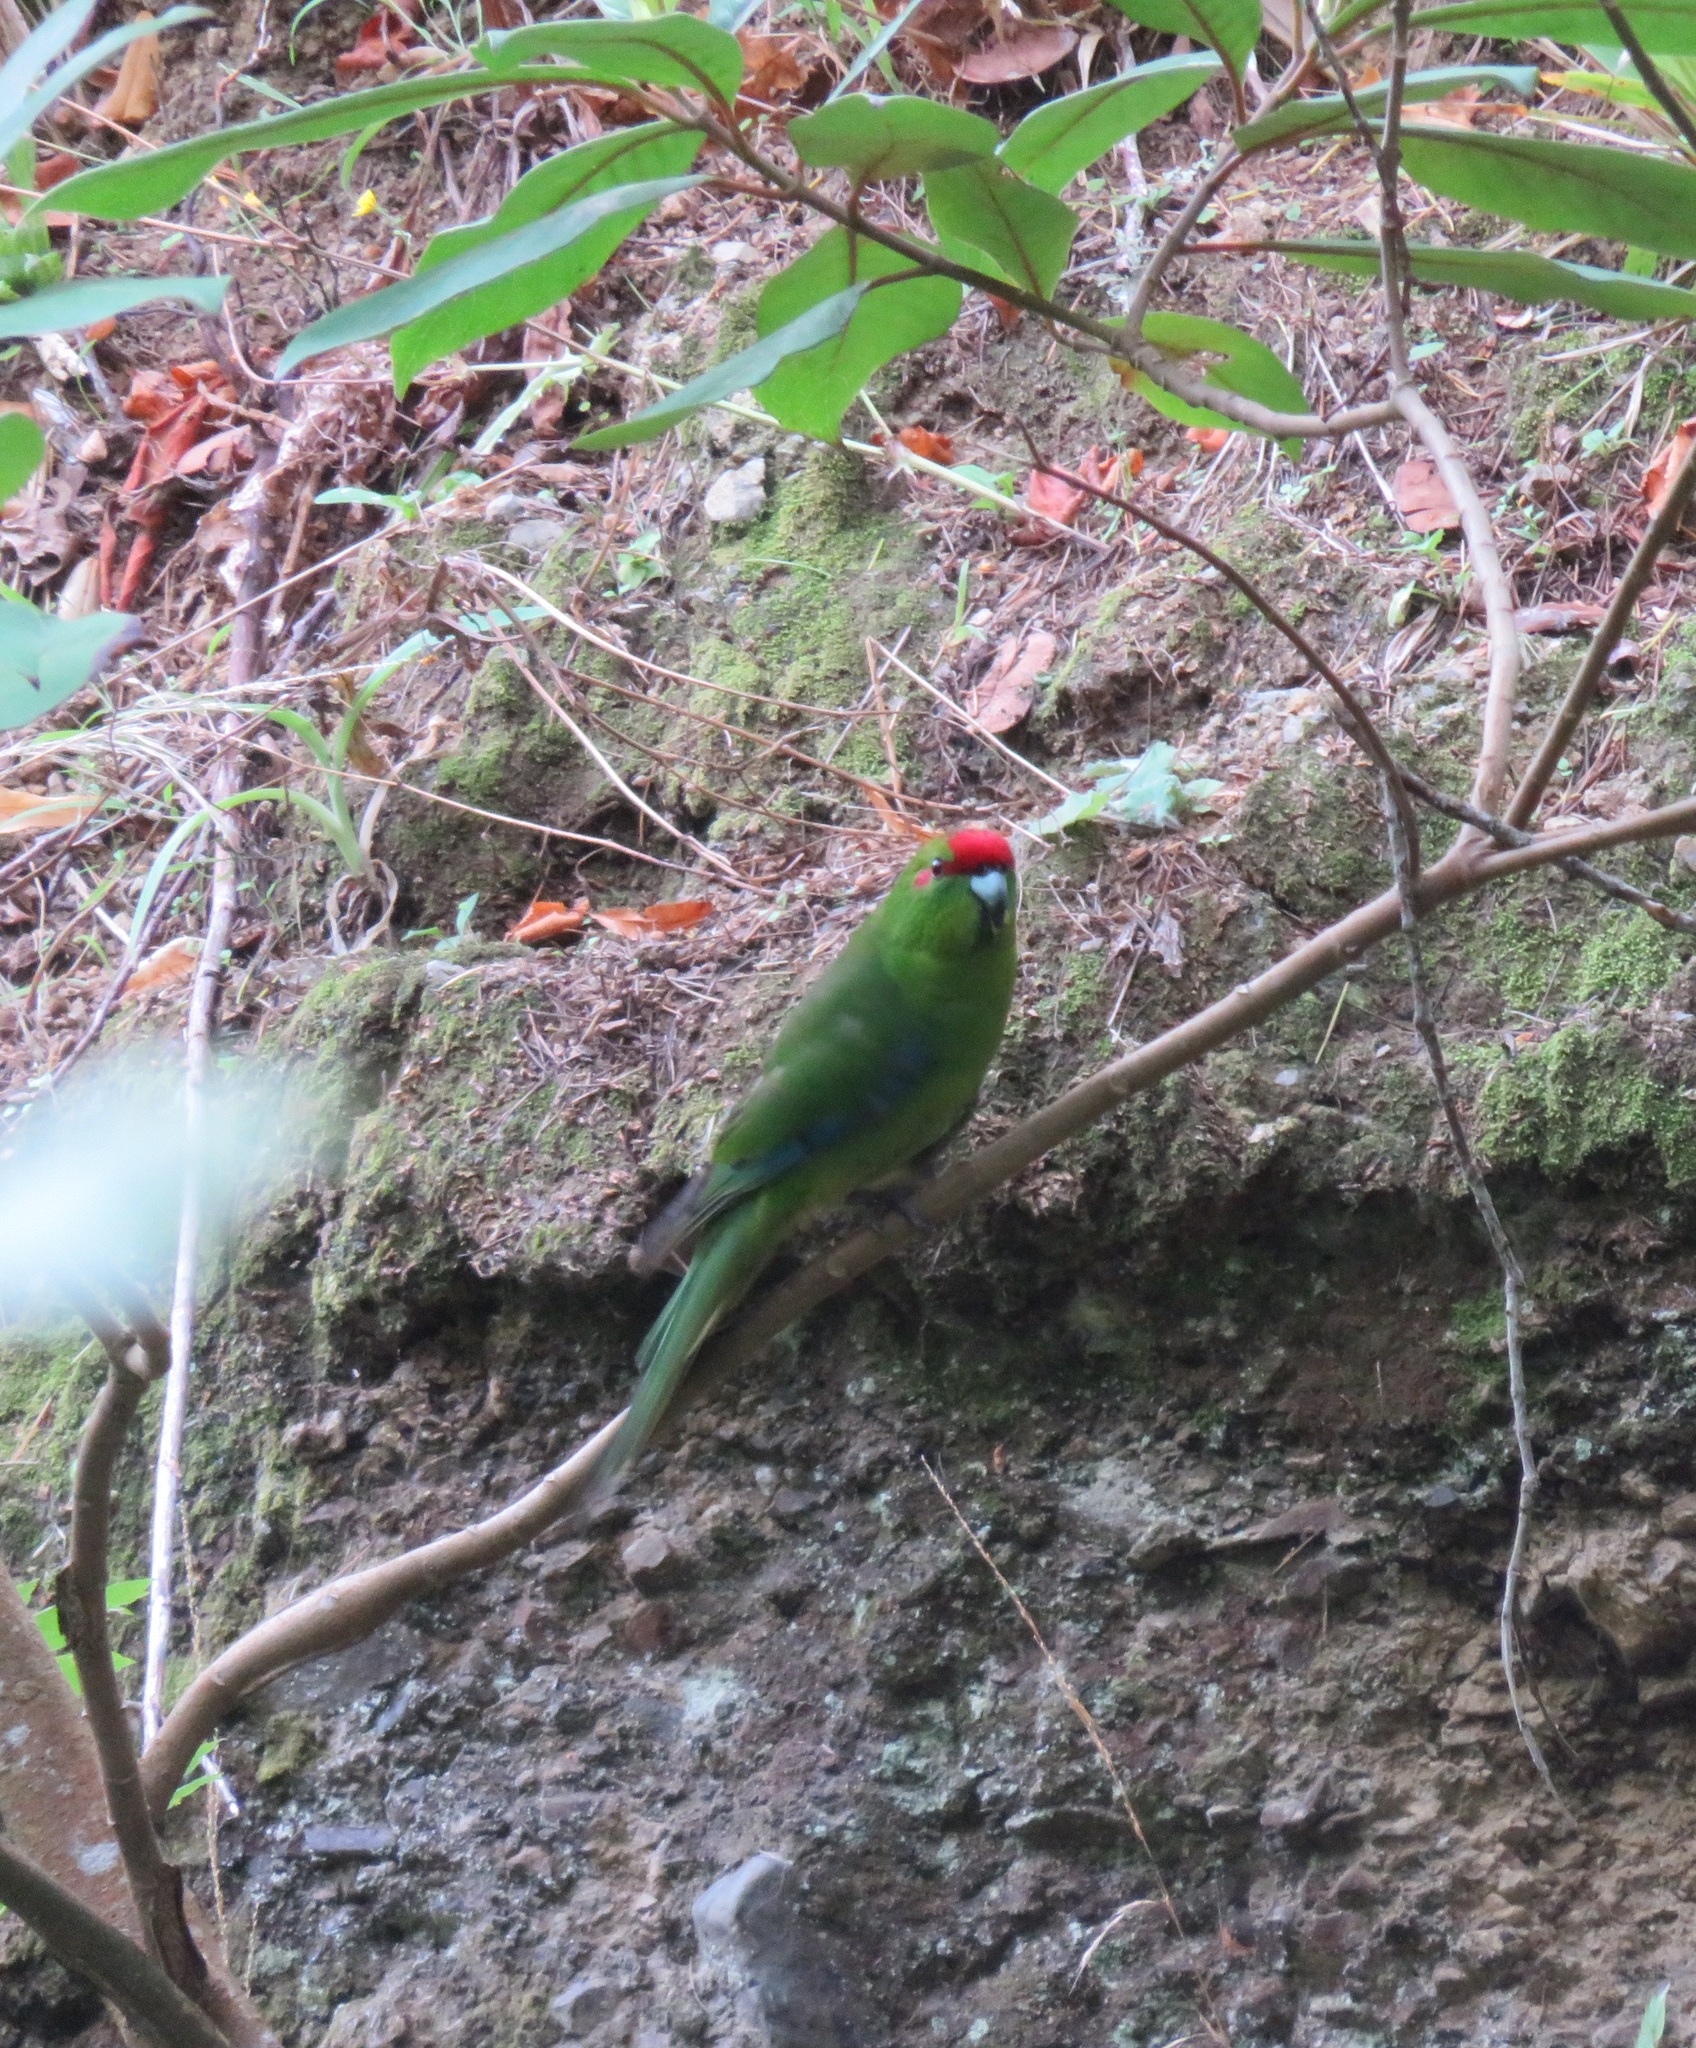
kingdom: Animalia
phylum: Chordata
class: Aves
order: Psittaciformes
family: Psittacidae
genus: Cyanoramphus
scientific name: Cyanoramphus novaezelandiae
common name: Red-fronted parakeet
